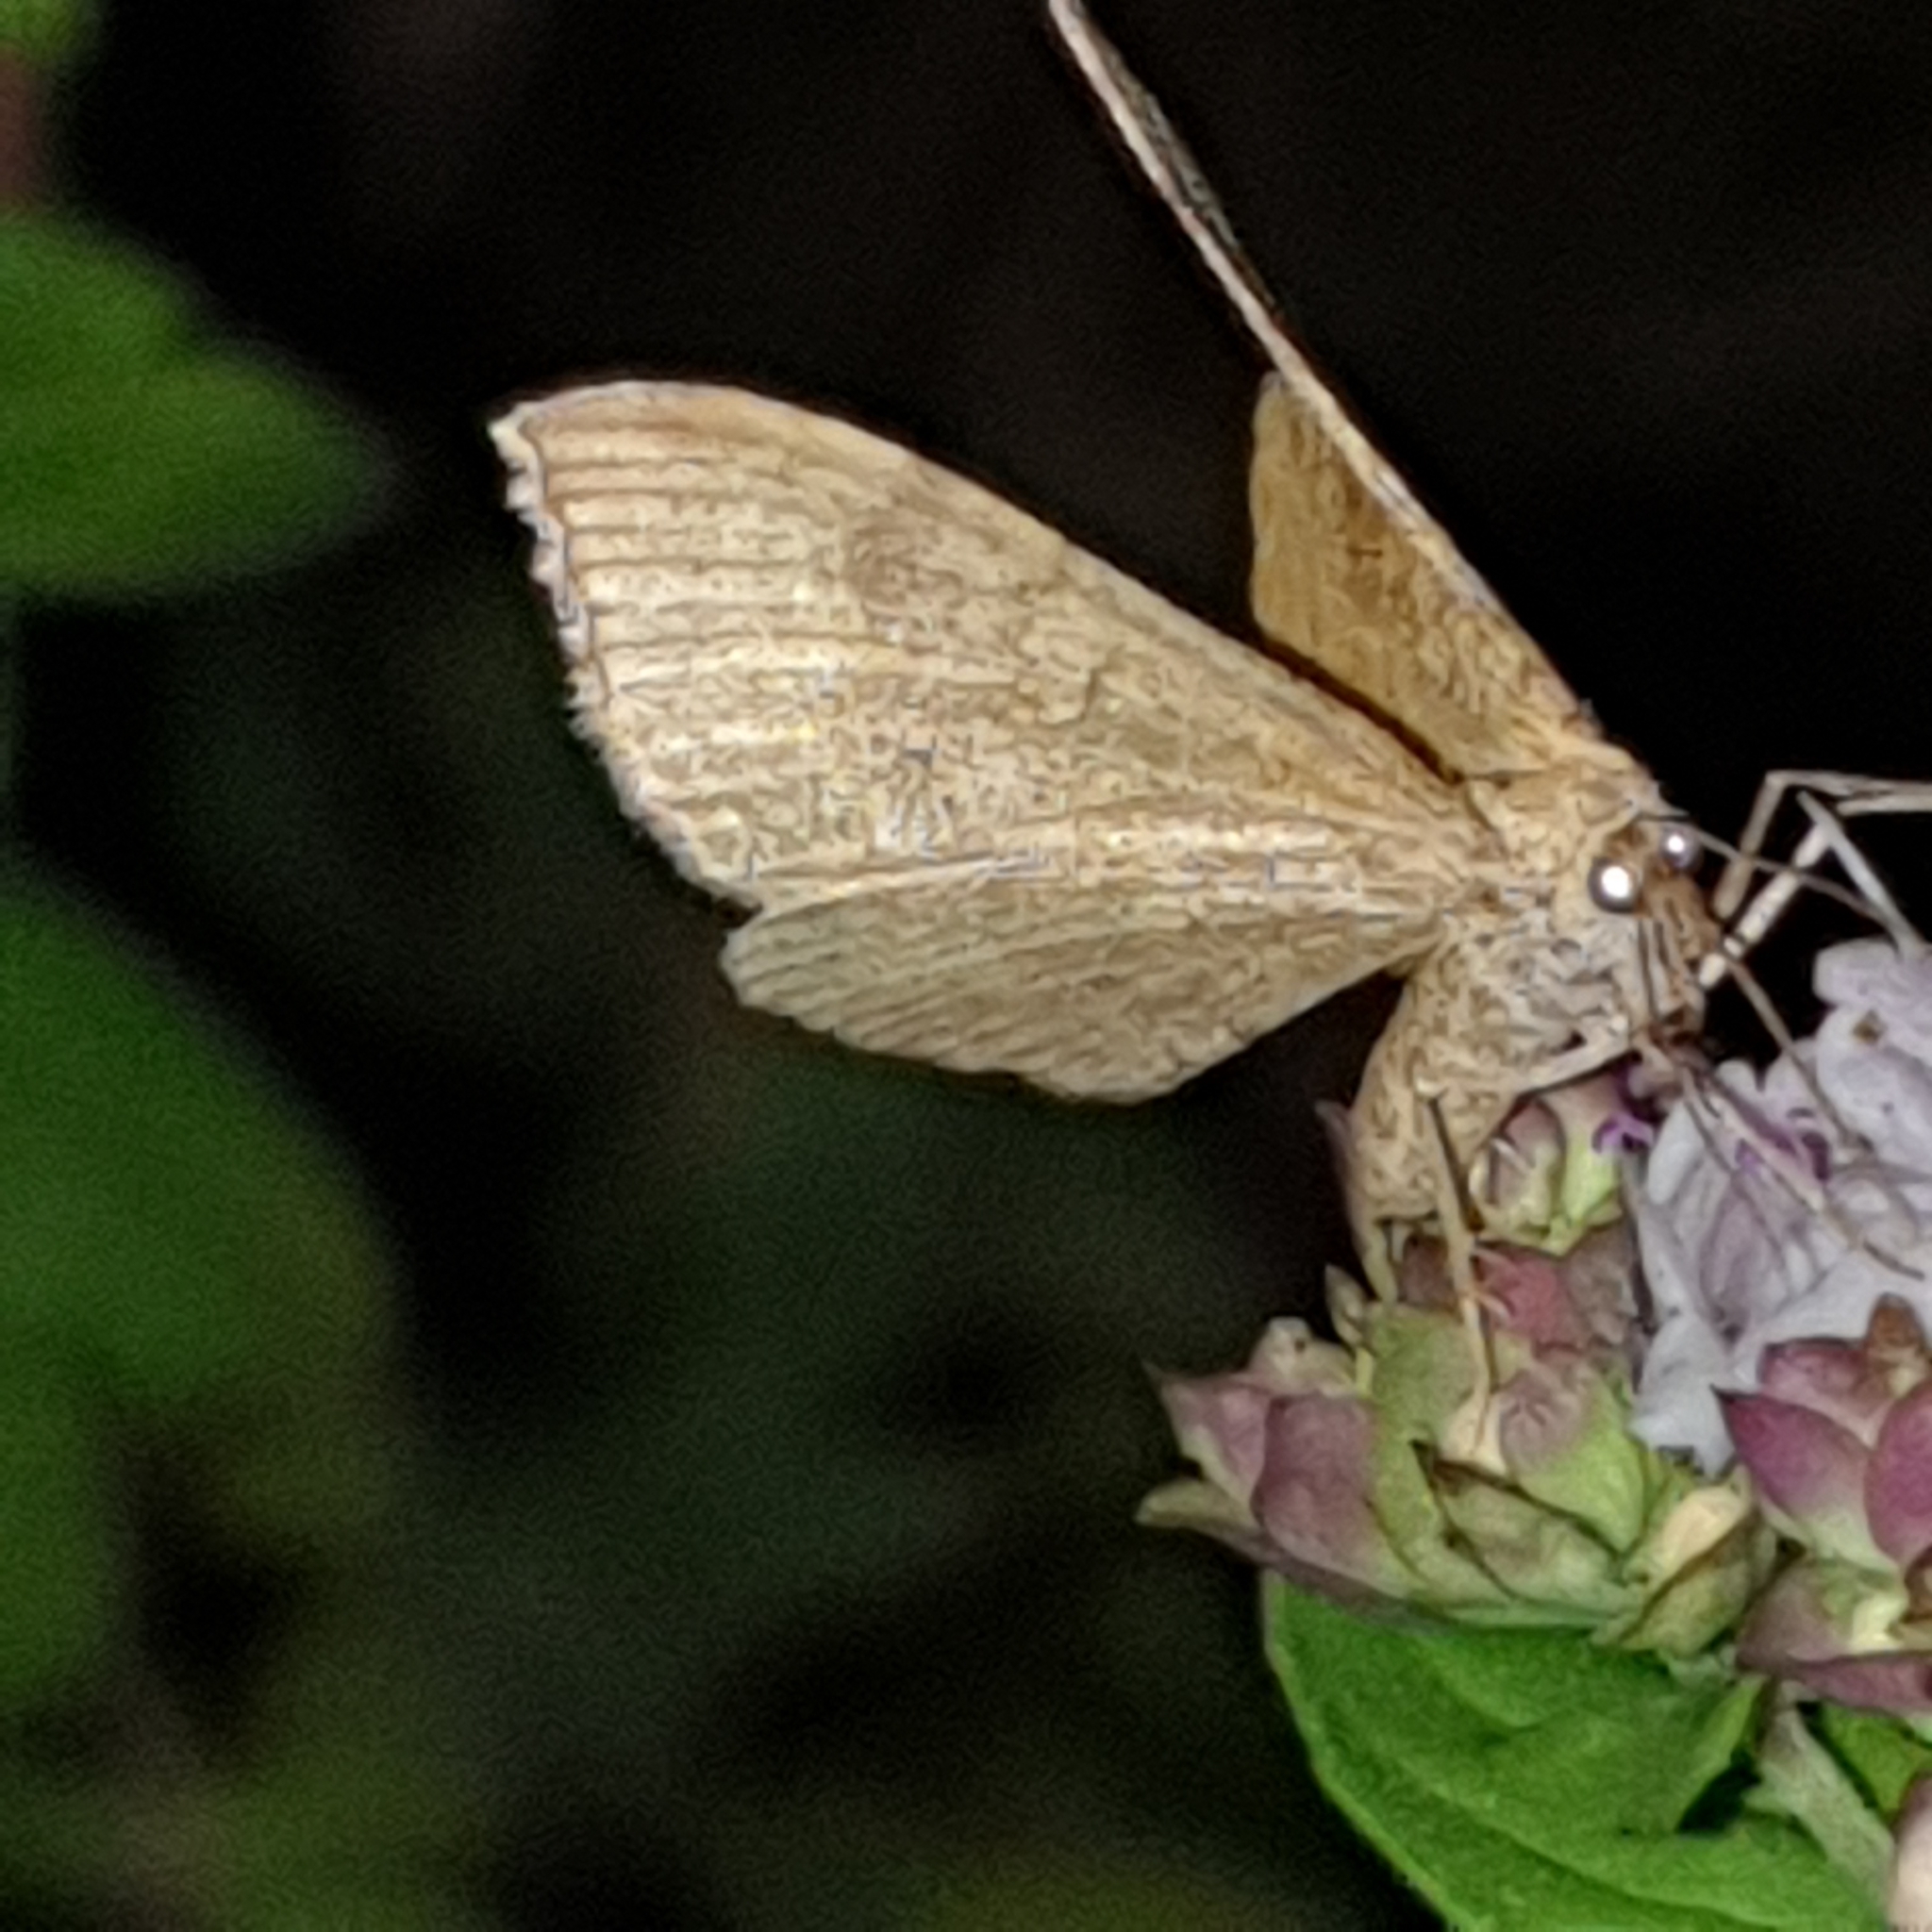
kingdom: Animalia
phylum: Arthropoda
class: Insecta
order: Lepidoptera
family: Geometridae
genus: Scotopteryx
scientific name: Scotopteryx chenopodiata
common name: Shaded broad-bar
